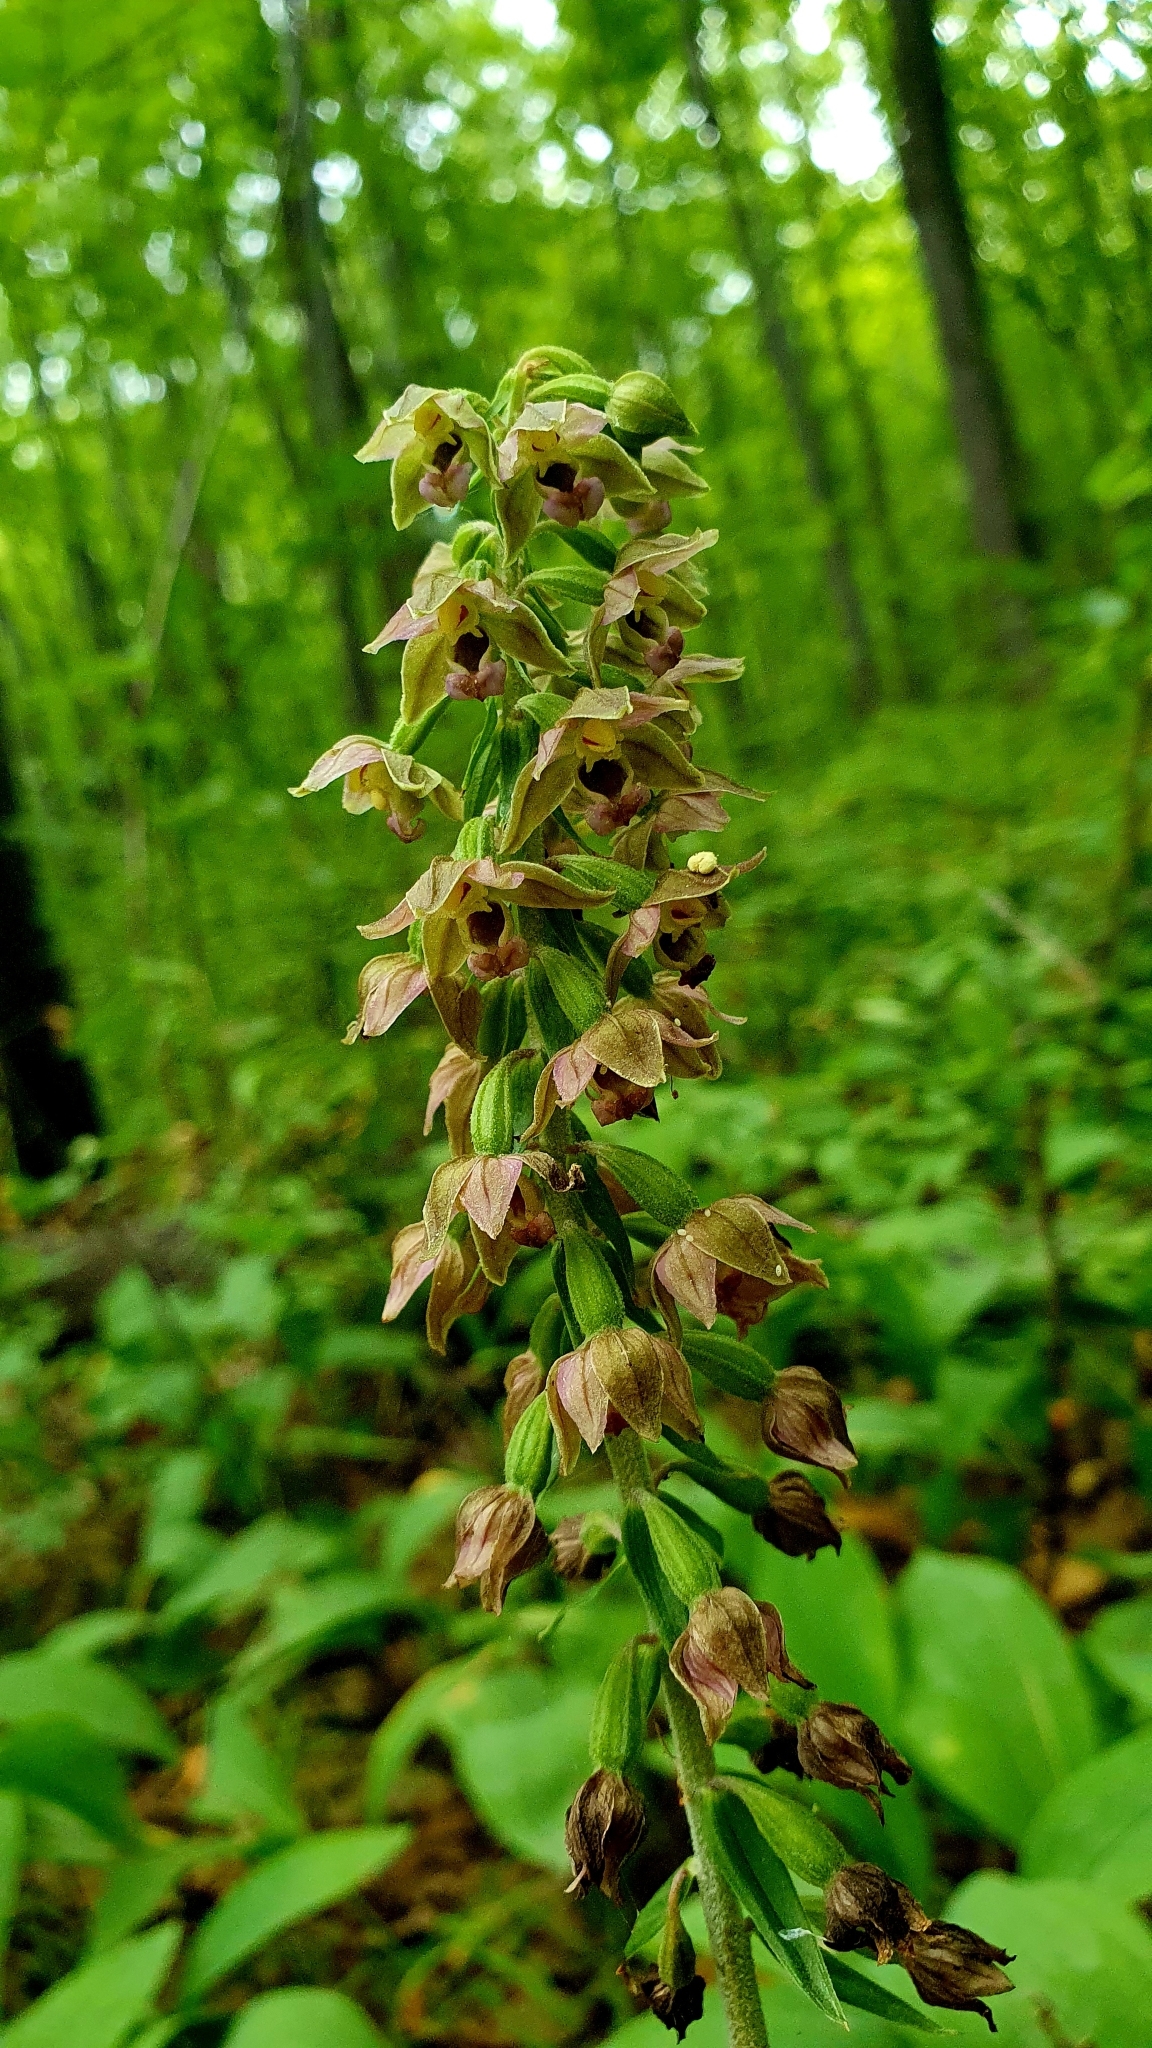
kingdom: Plantae
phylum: Tracheophyta
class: Liliopsida
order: Asparagales
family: Orchidaceae
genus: Epipactis
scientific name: Epipactis helleborine
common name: Broad-leaved helleborine
